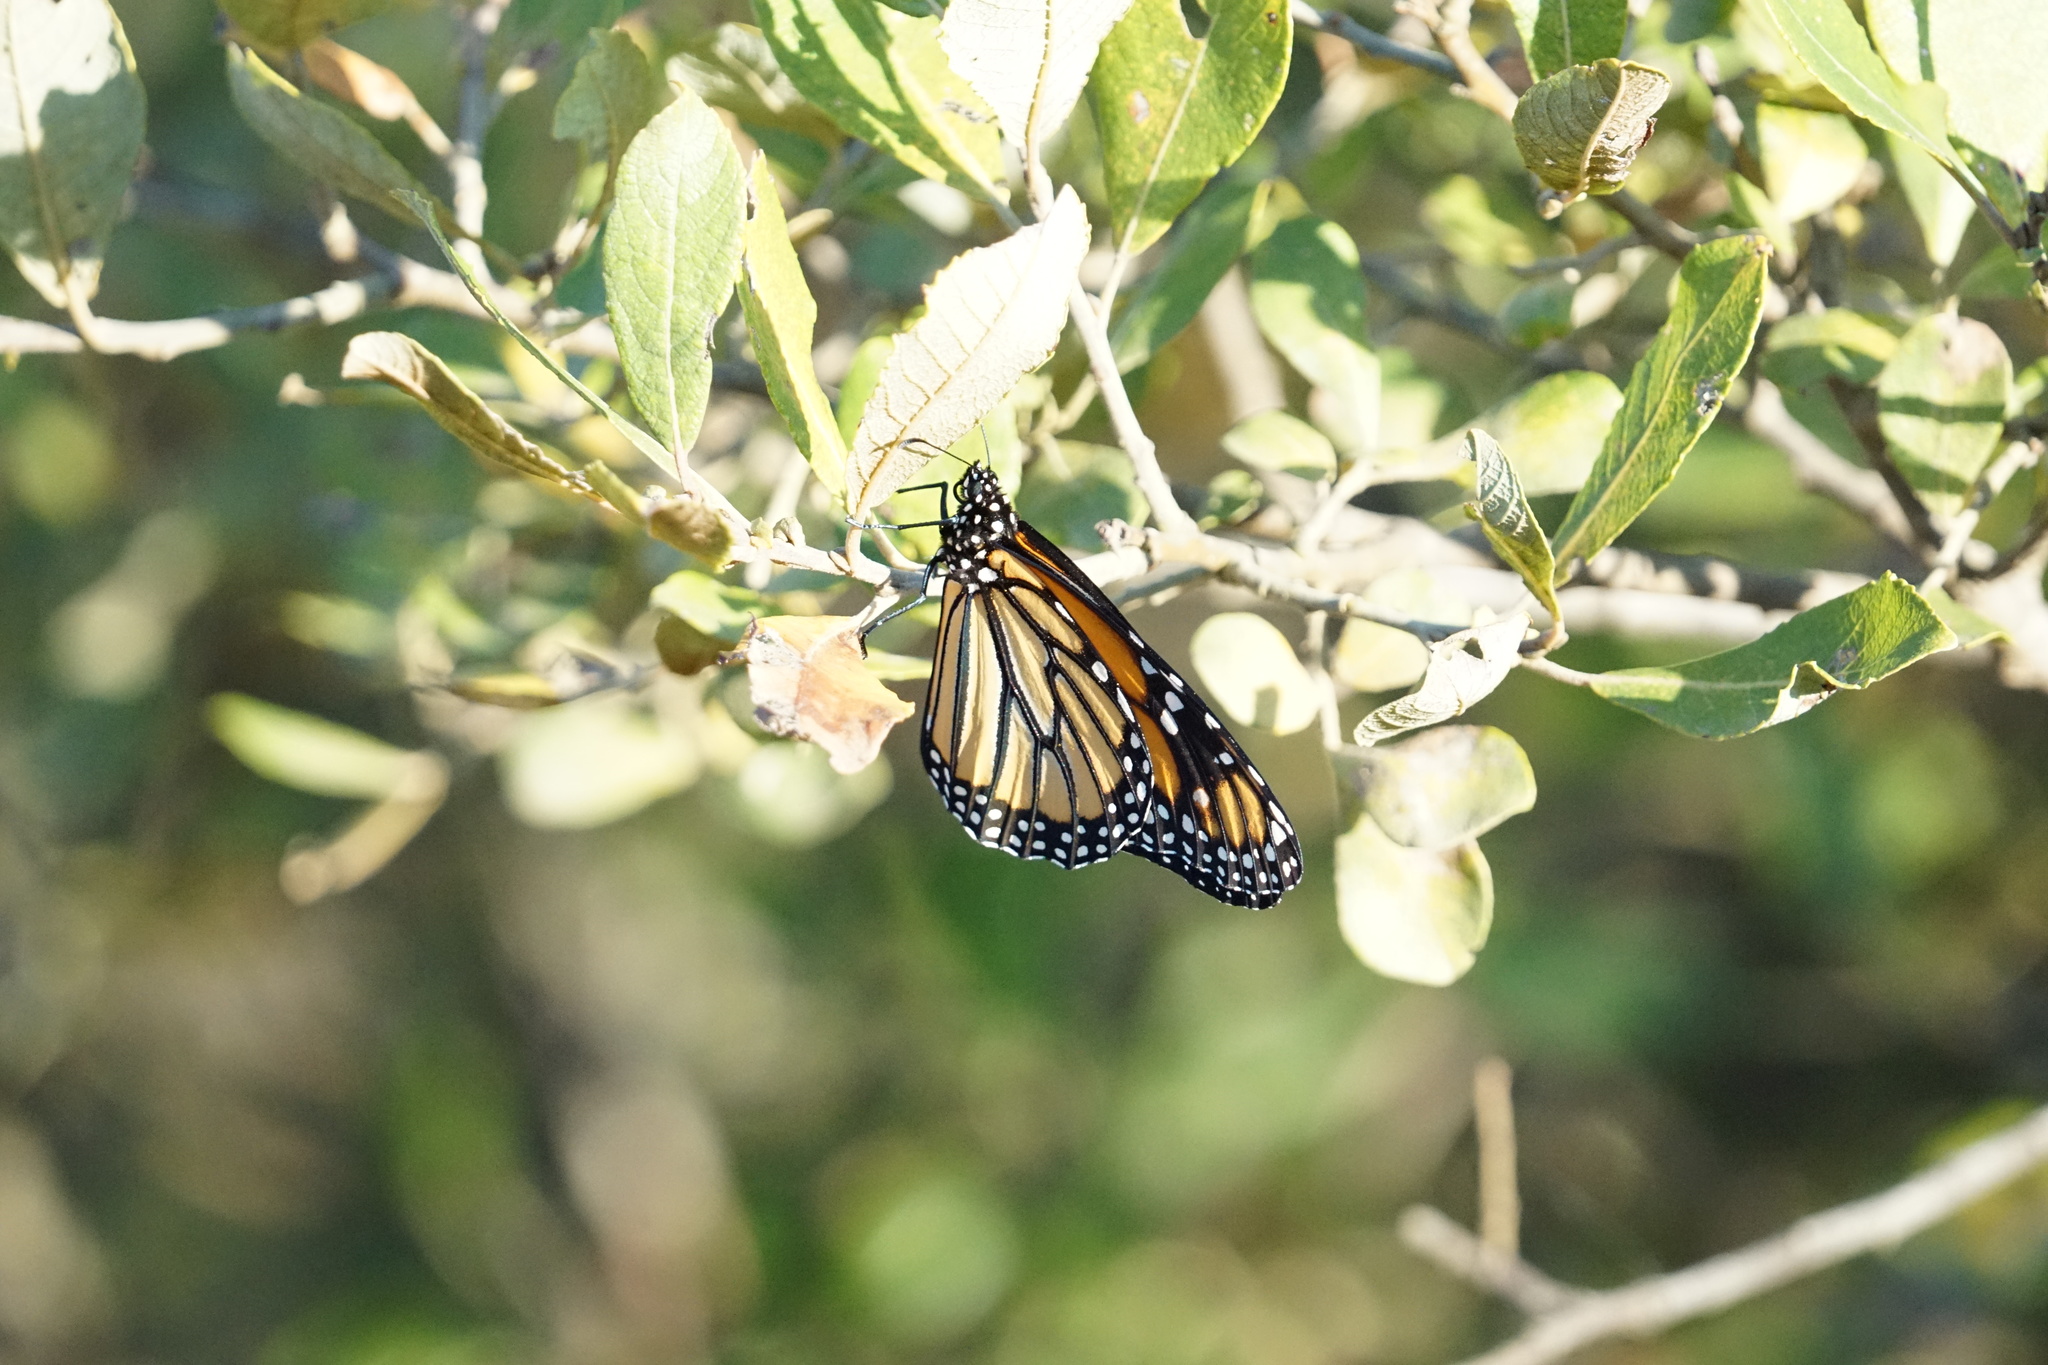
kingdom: Animalia
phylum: Arthropoda
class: Insecta
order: Lepidoptera
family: Nymphalidae
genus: Danaus
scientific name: Danaus plexippus
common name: Monarch
